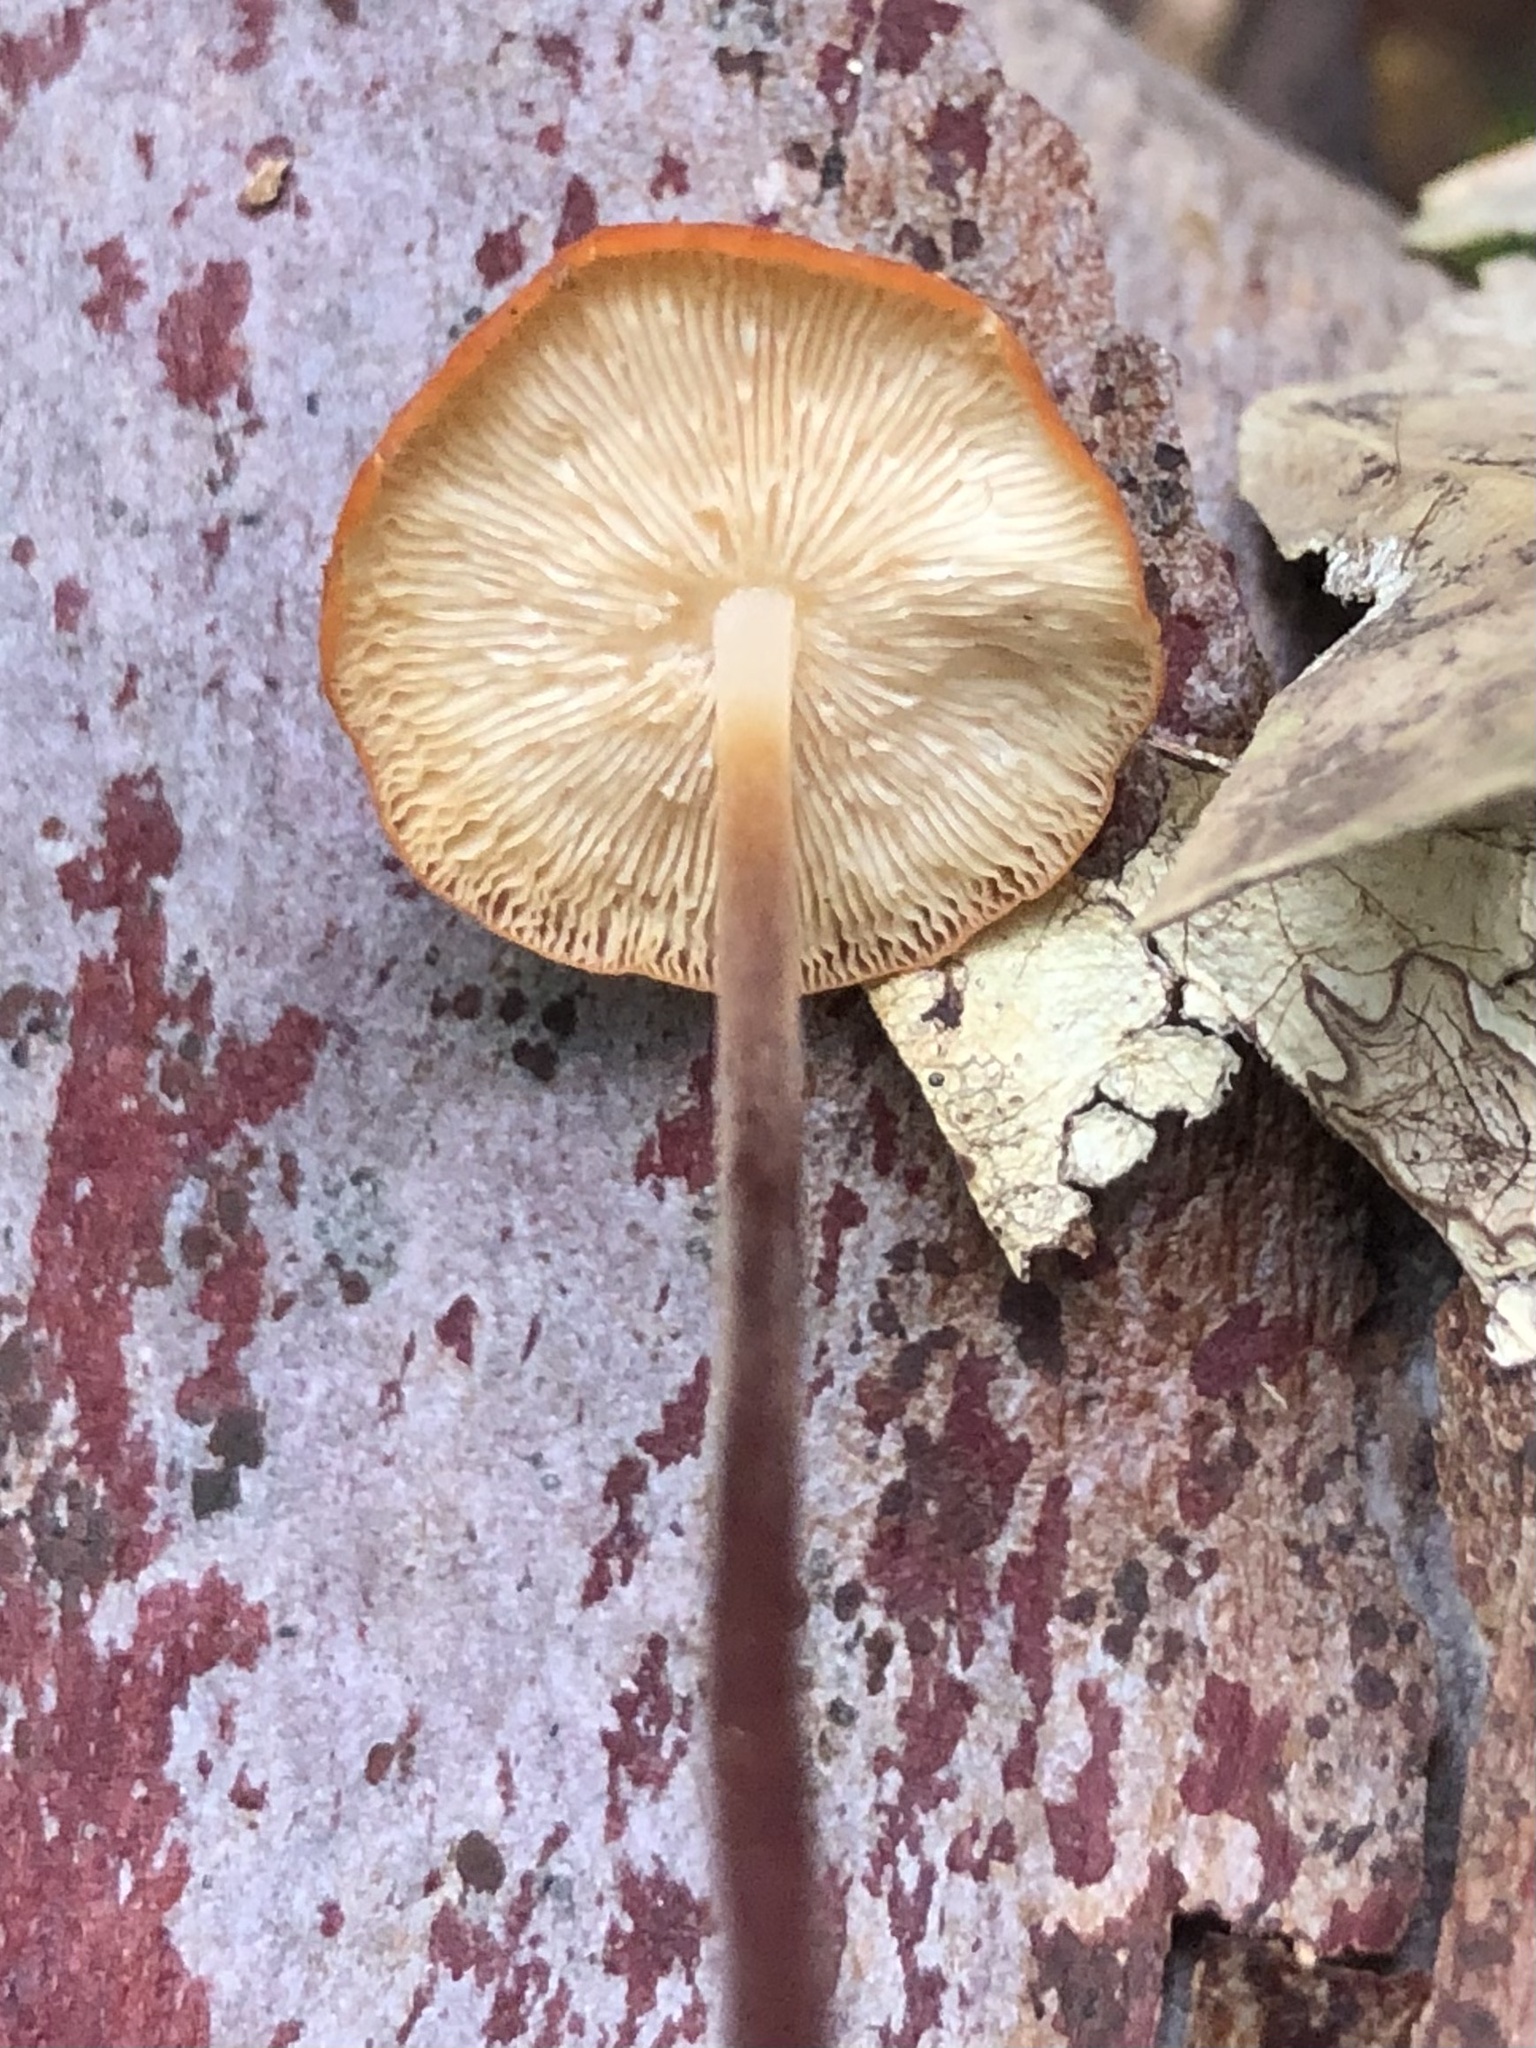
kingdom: Fungi
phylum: Basidiomycota
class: Agaricomycetes
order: Agaricales
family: Marasmiaceae
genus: Marasmius
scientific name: Marasmius elegans
